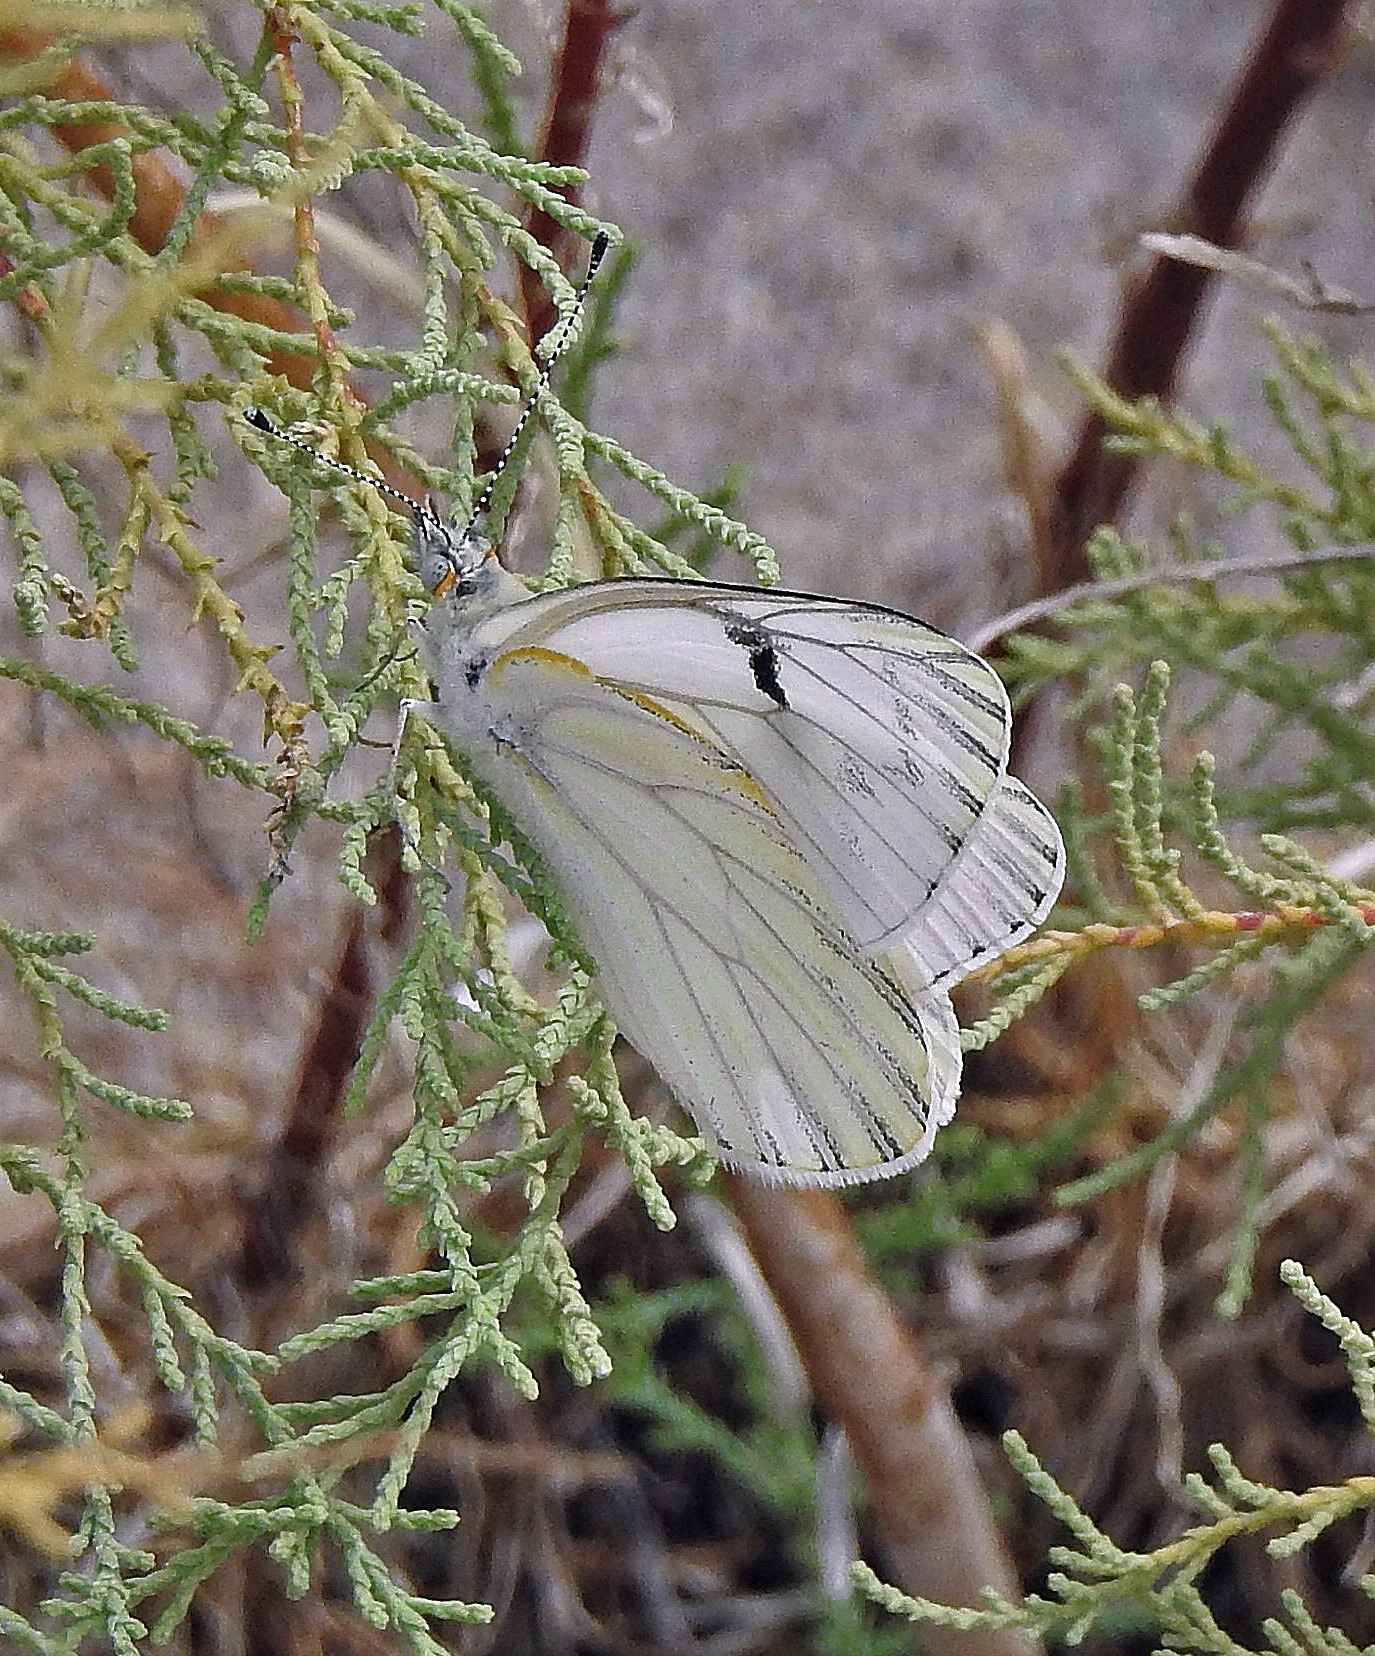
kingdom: Animalia
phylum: Arthropoda
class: Insecta
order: Lepidoptera
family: Pieridae
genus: Tatochila
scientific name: Tatochila mercedis
